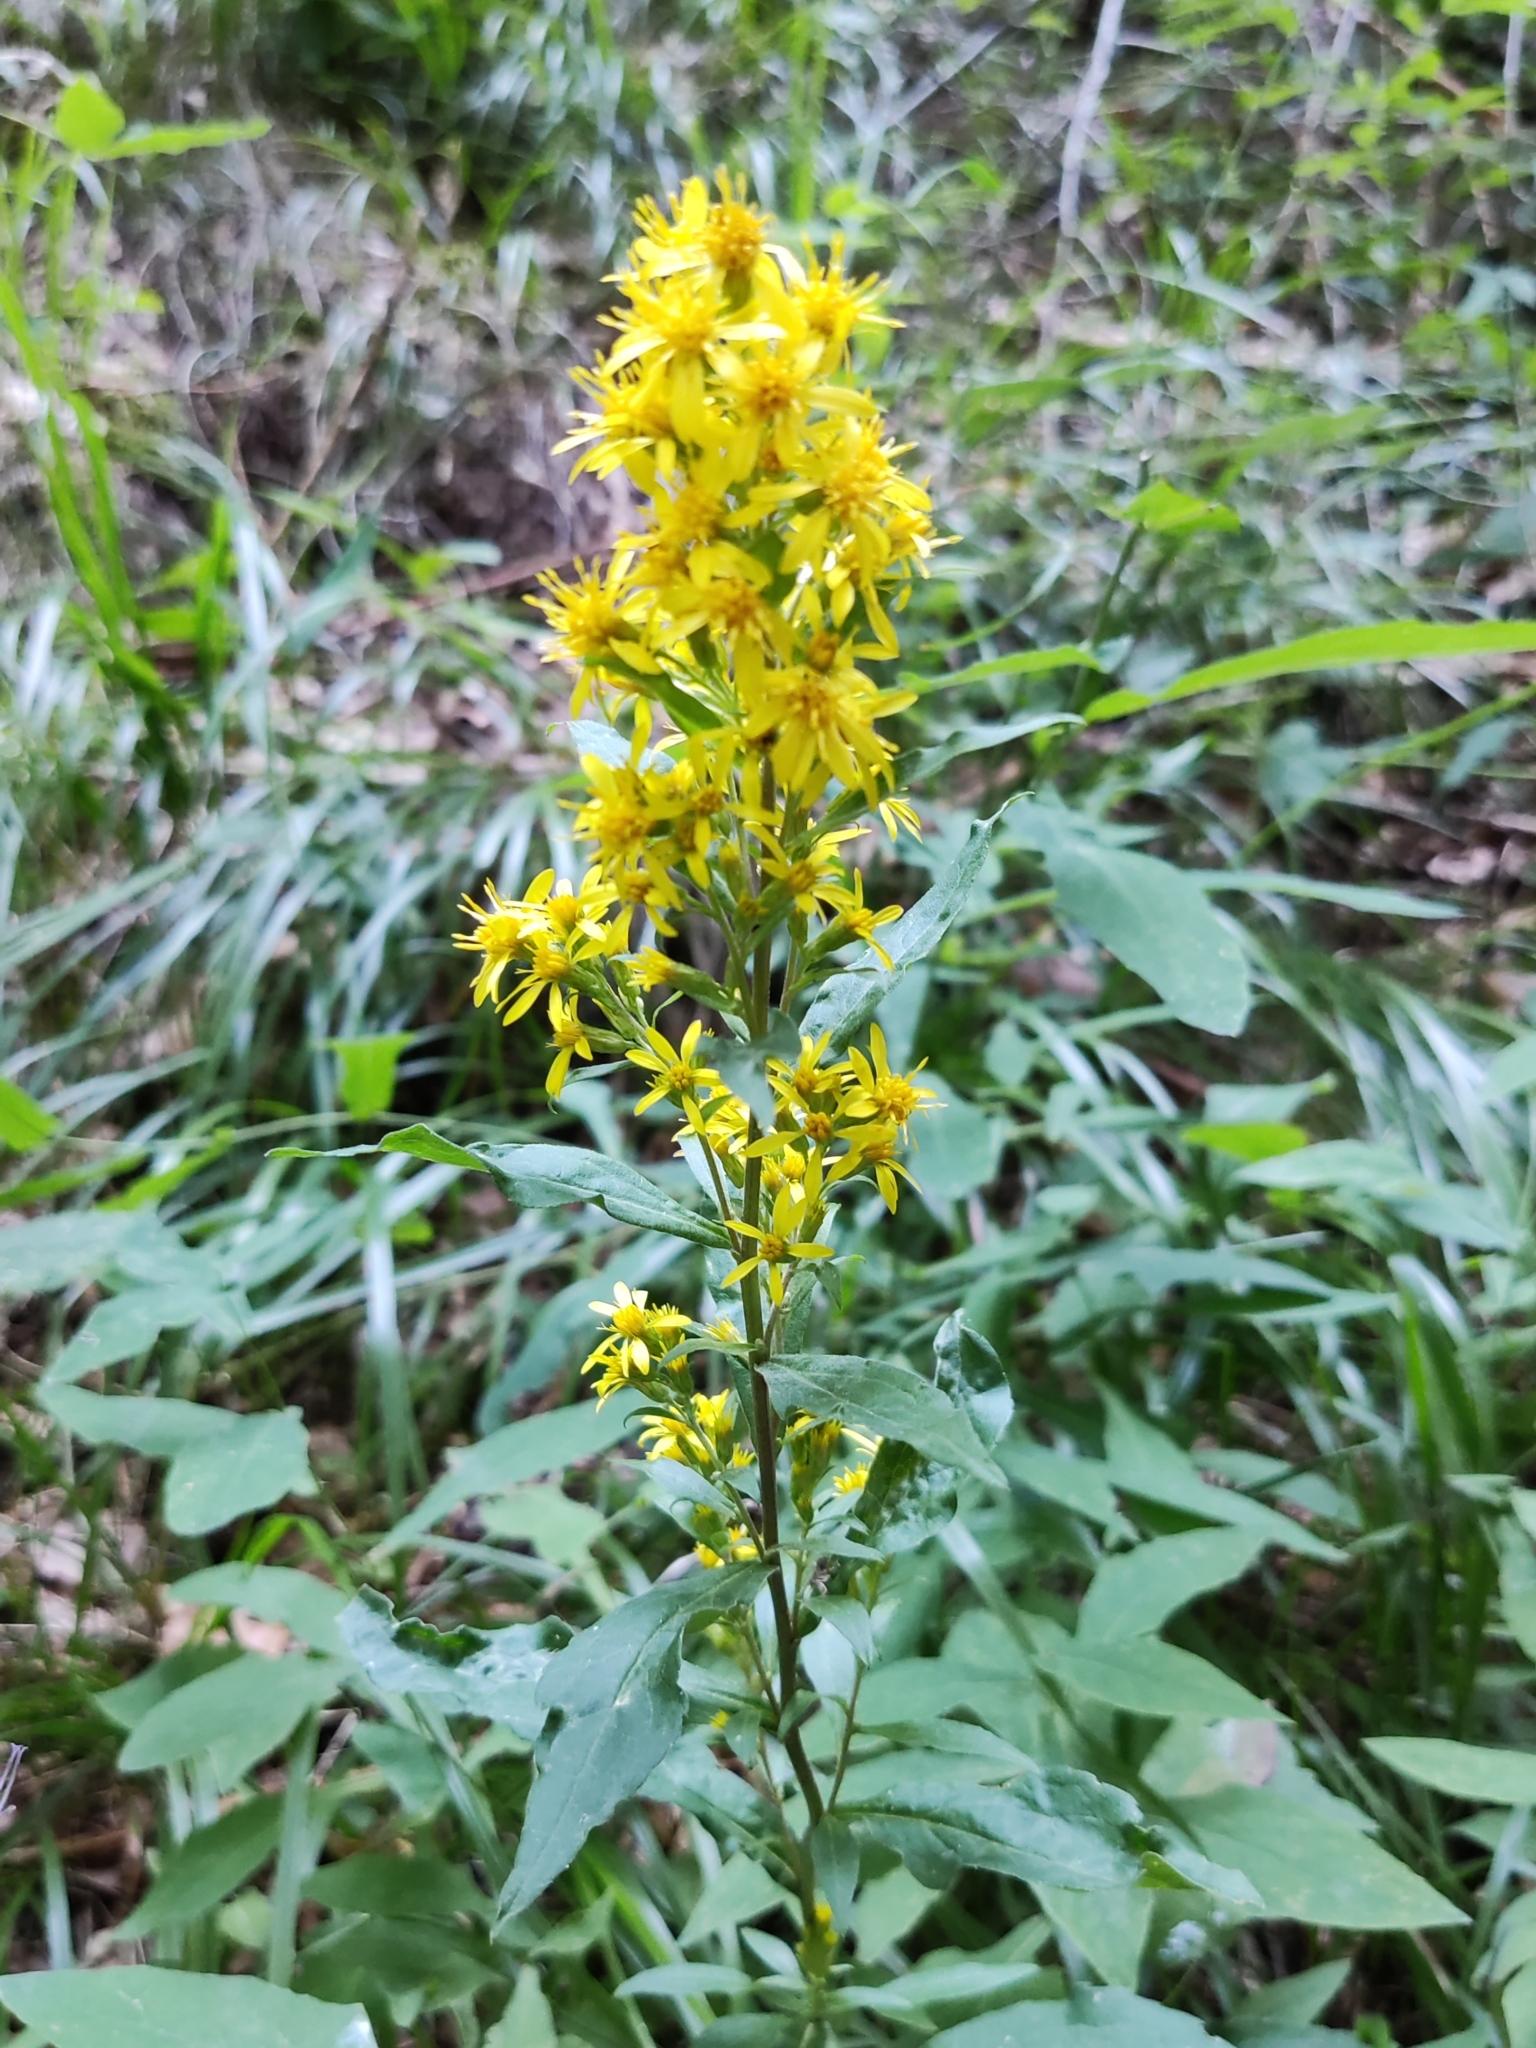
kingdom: Plantae
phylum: Tracheophyta
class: Magnoliopsida
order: Asterales
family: Asteraceae
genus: Solidago
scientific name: Solidago virgaurea
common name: Goldenrod
